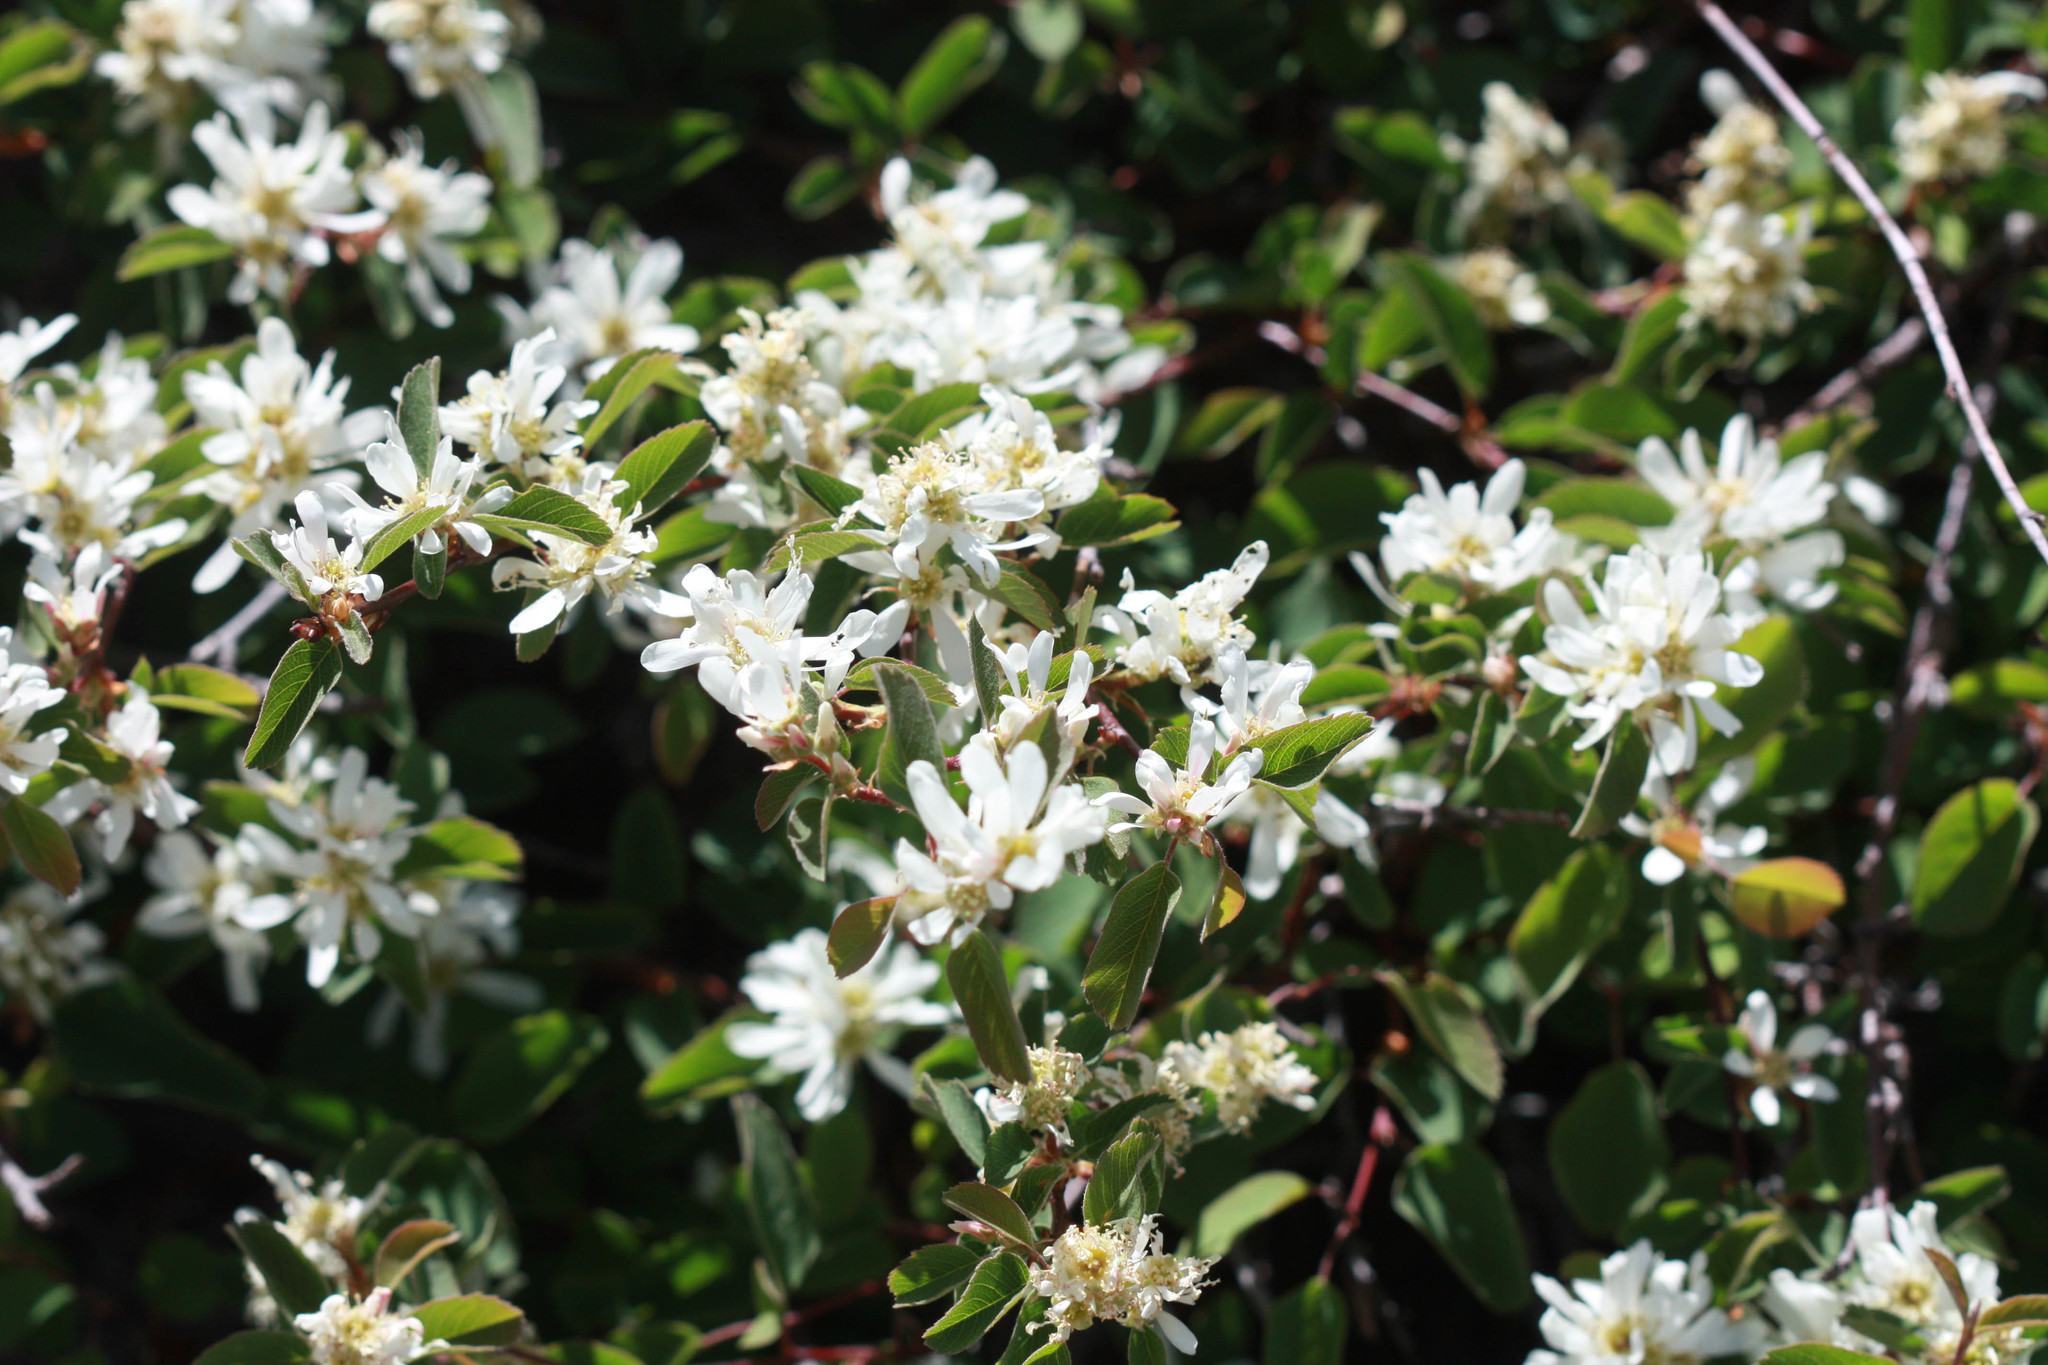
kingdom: Plantae
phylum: Tracheophyta
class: Magnoliopsida
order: Rosales
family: Rosaceae
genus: Amelanchier
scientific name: Amelanchier utahensis
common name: Utah serviceberry
